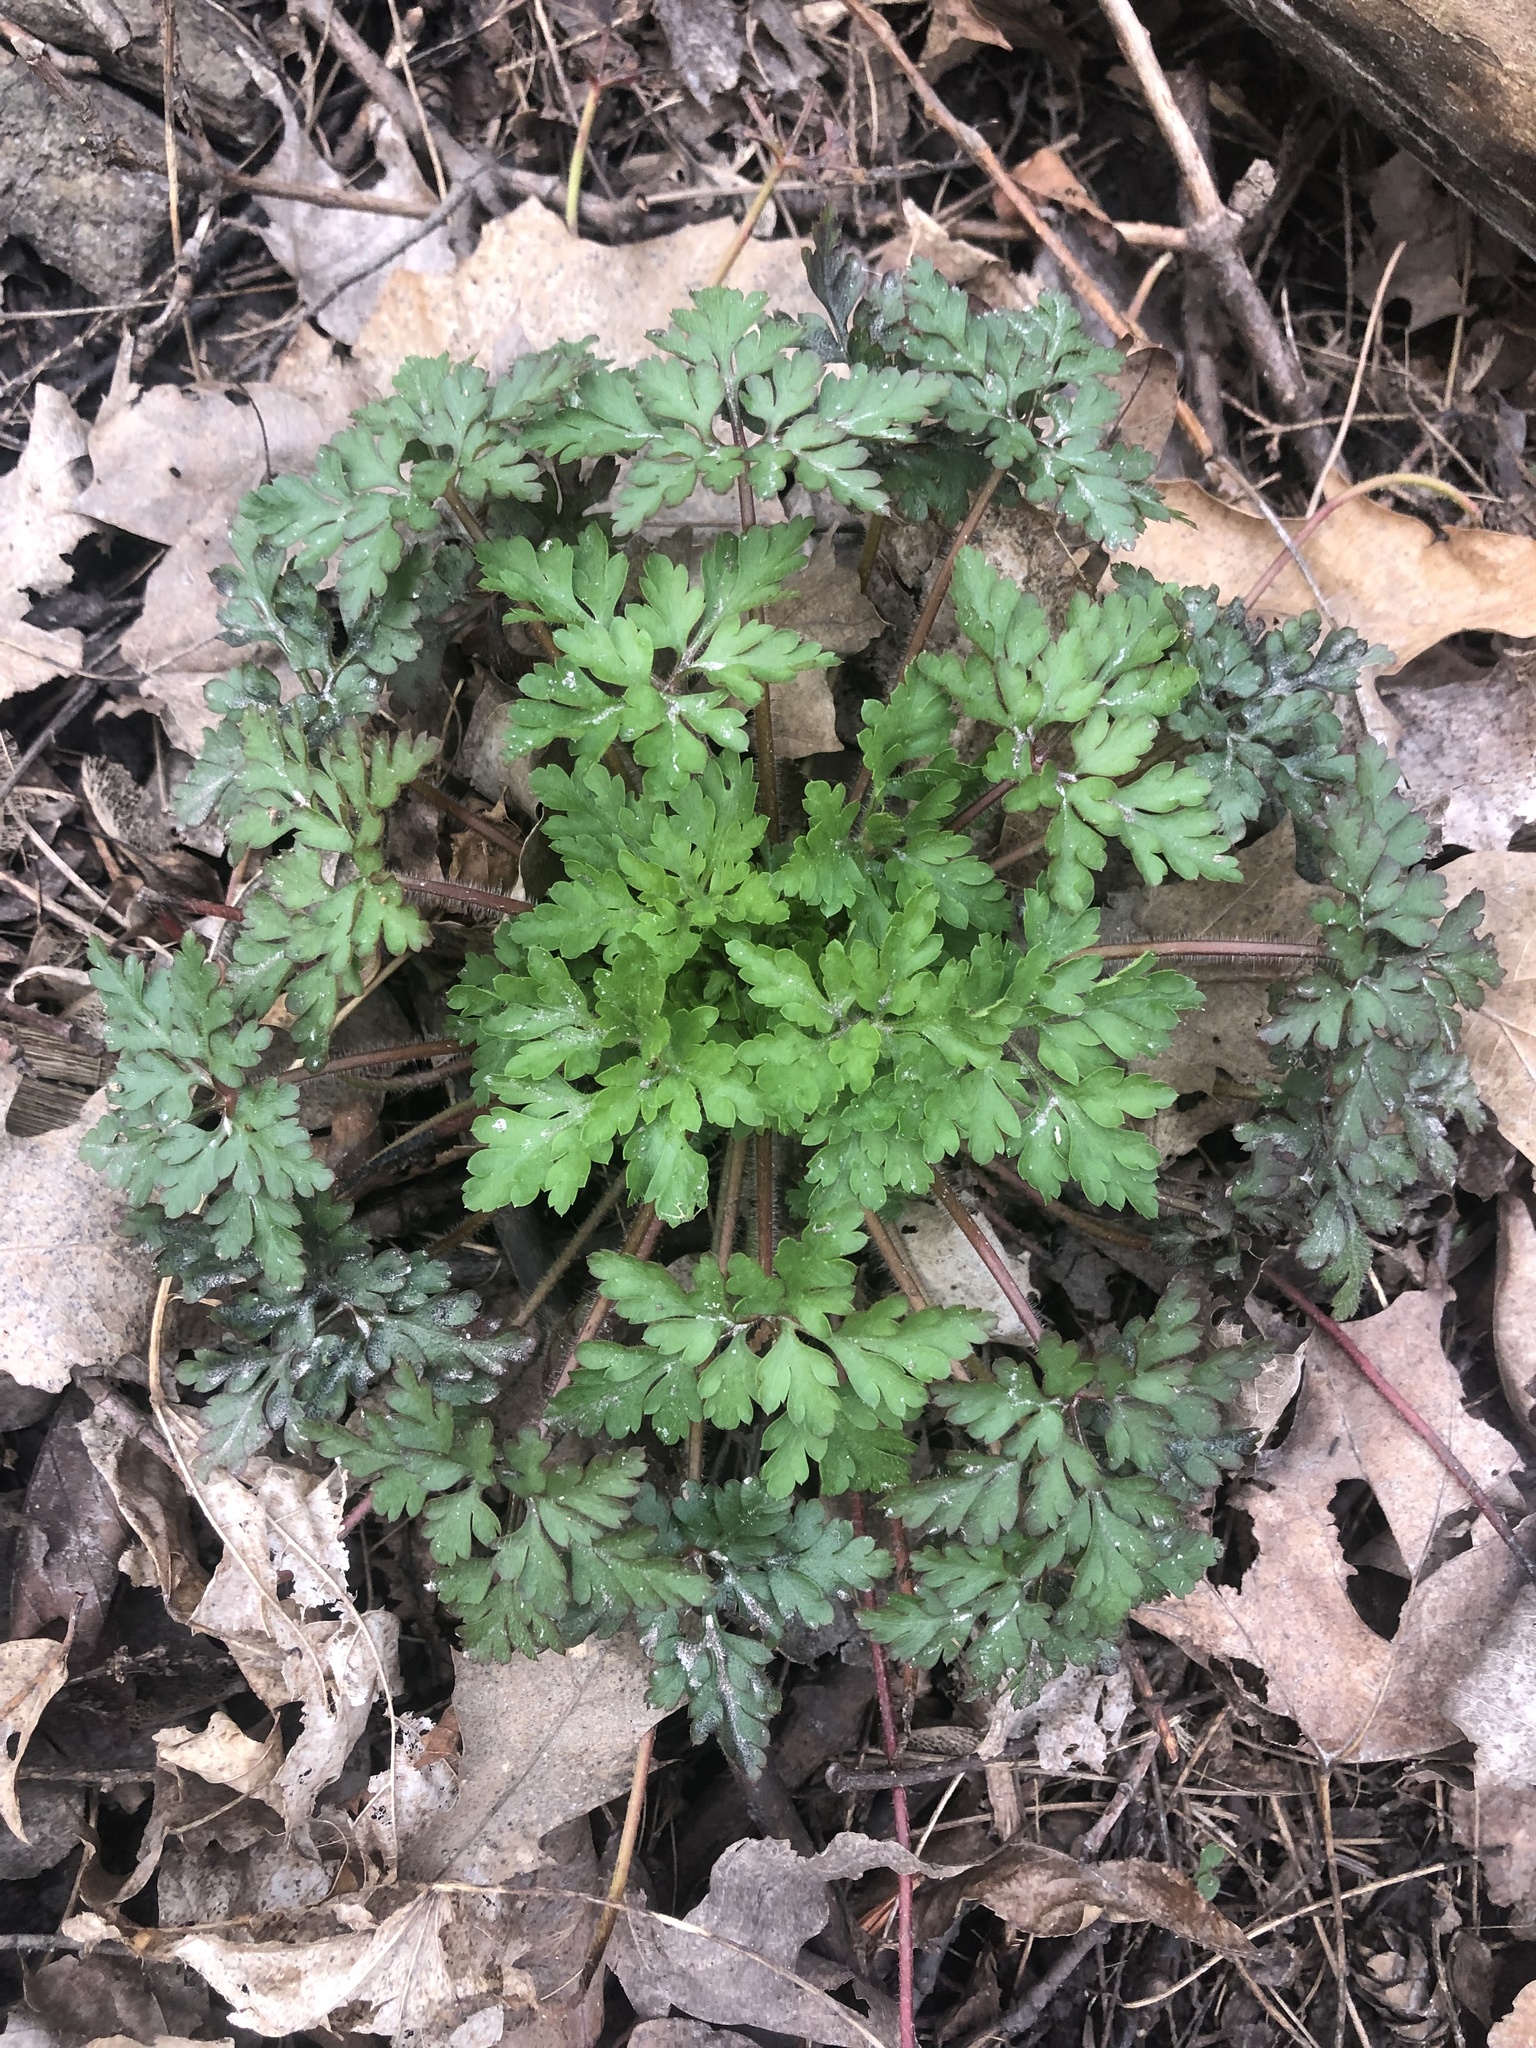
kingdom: Plantae
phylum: Tracheophyta
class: Magnoliopsida
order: Geraniales
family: Geraniaceae
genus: Geranium
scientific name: Geranium robertianum
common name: Herb-robert
